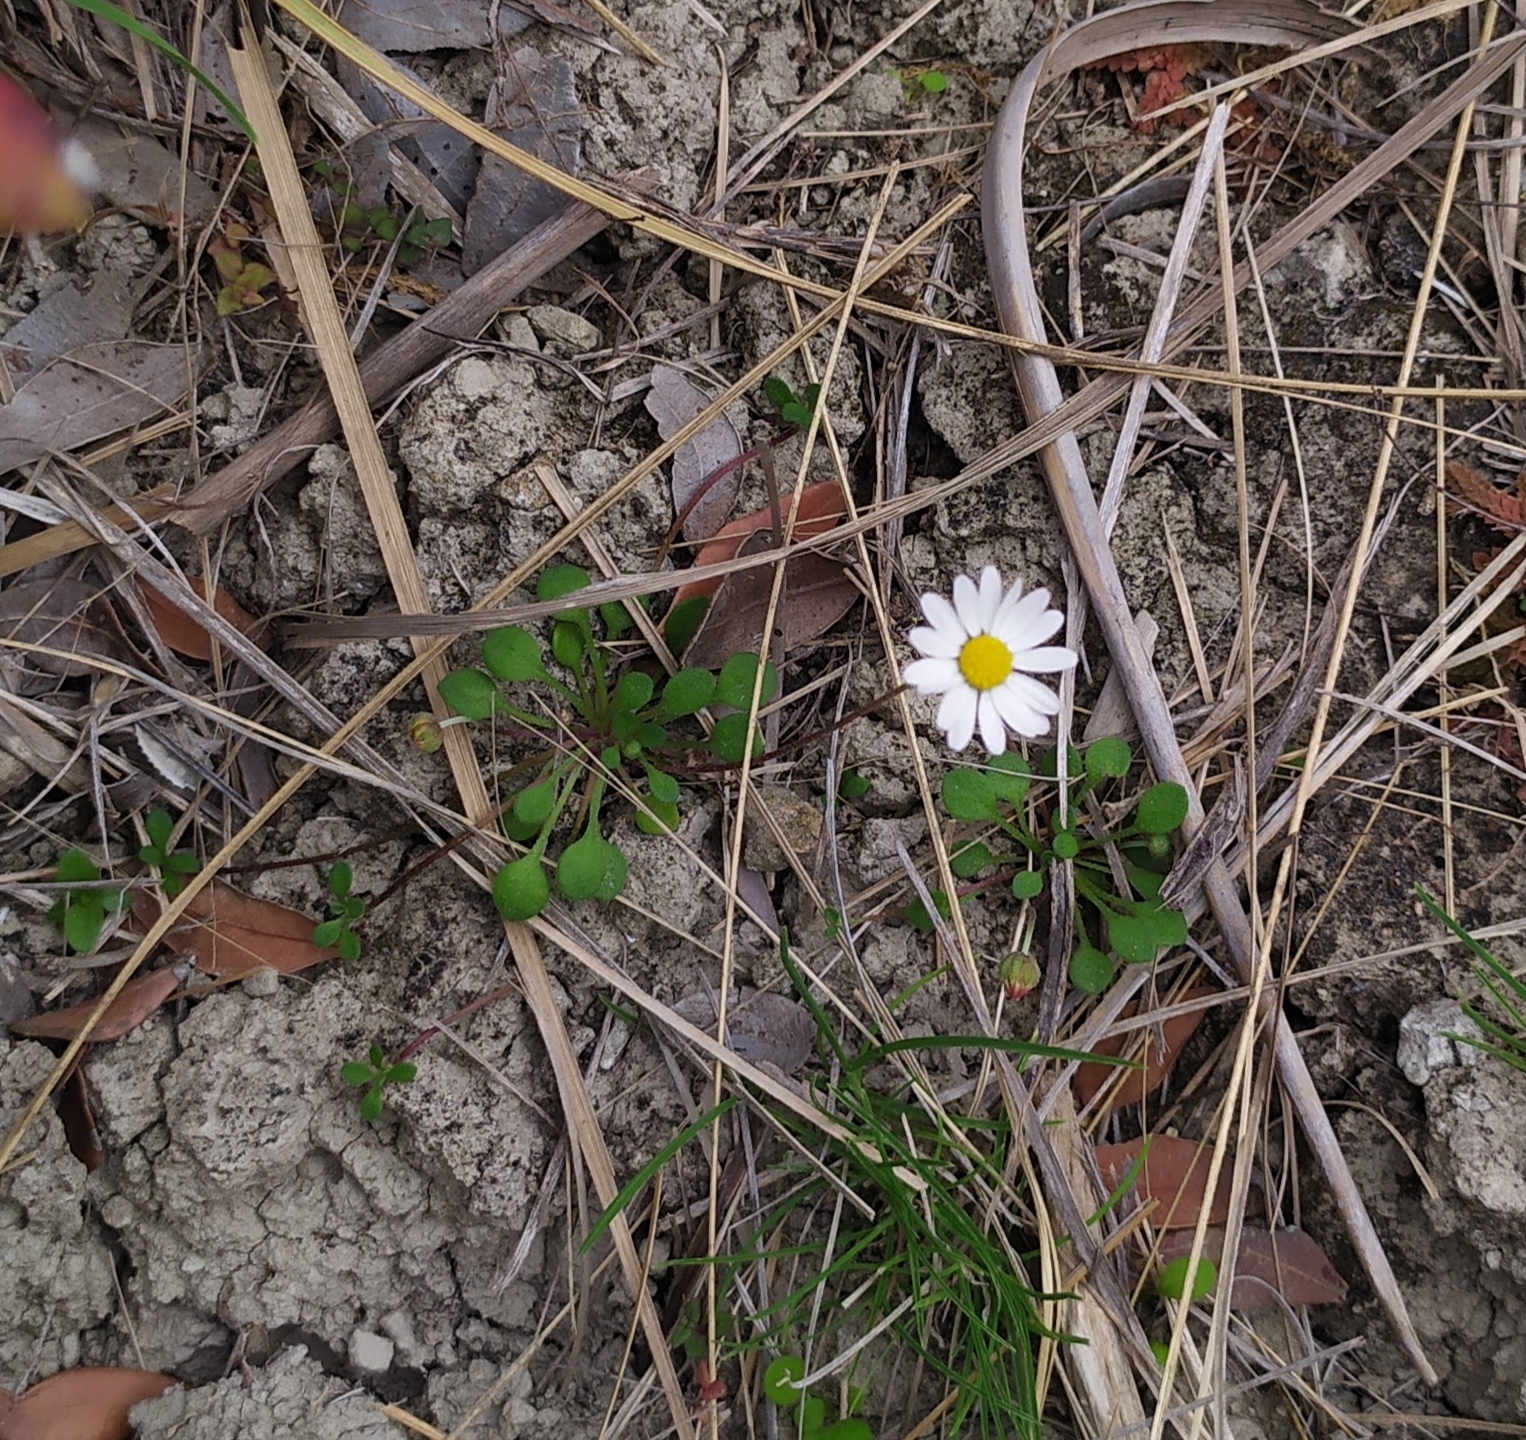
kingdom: Plantae
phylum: Tracheophyta
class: Magnoliopsida
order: Asterales
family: Asteraceae
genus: Bellium
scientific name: Bellium bellidioides
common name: False daisy
